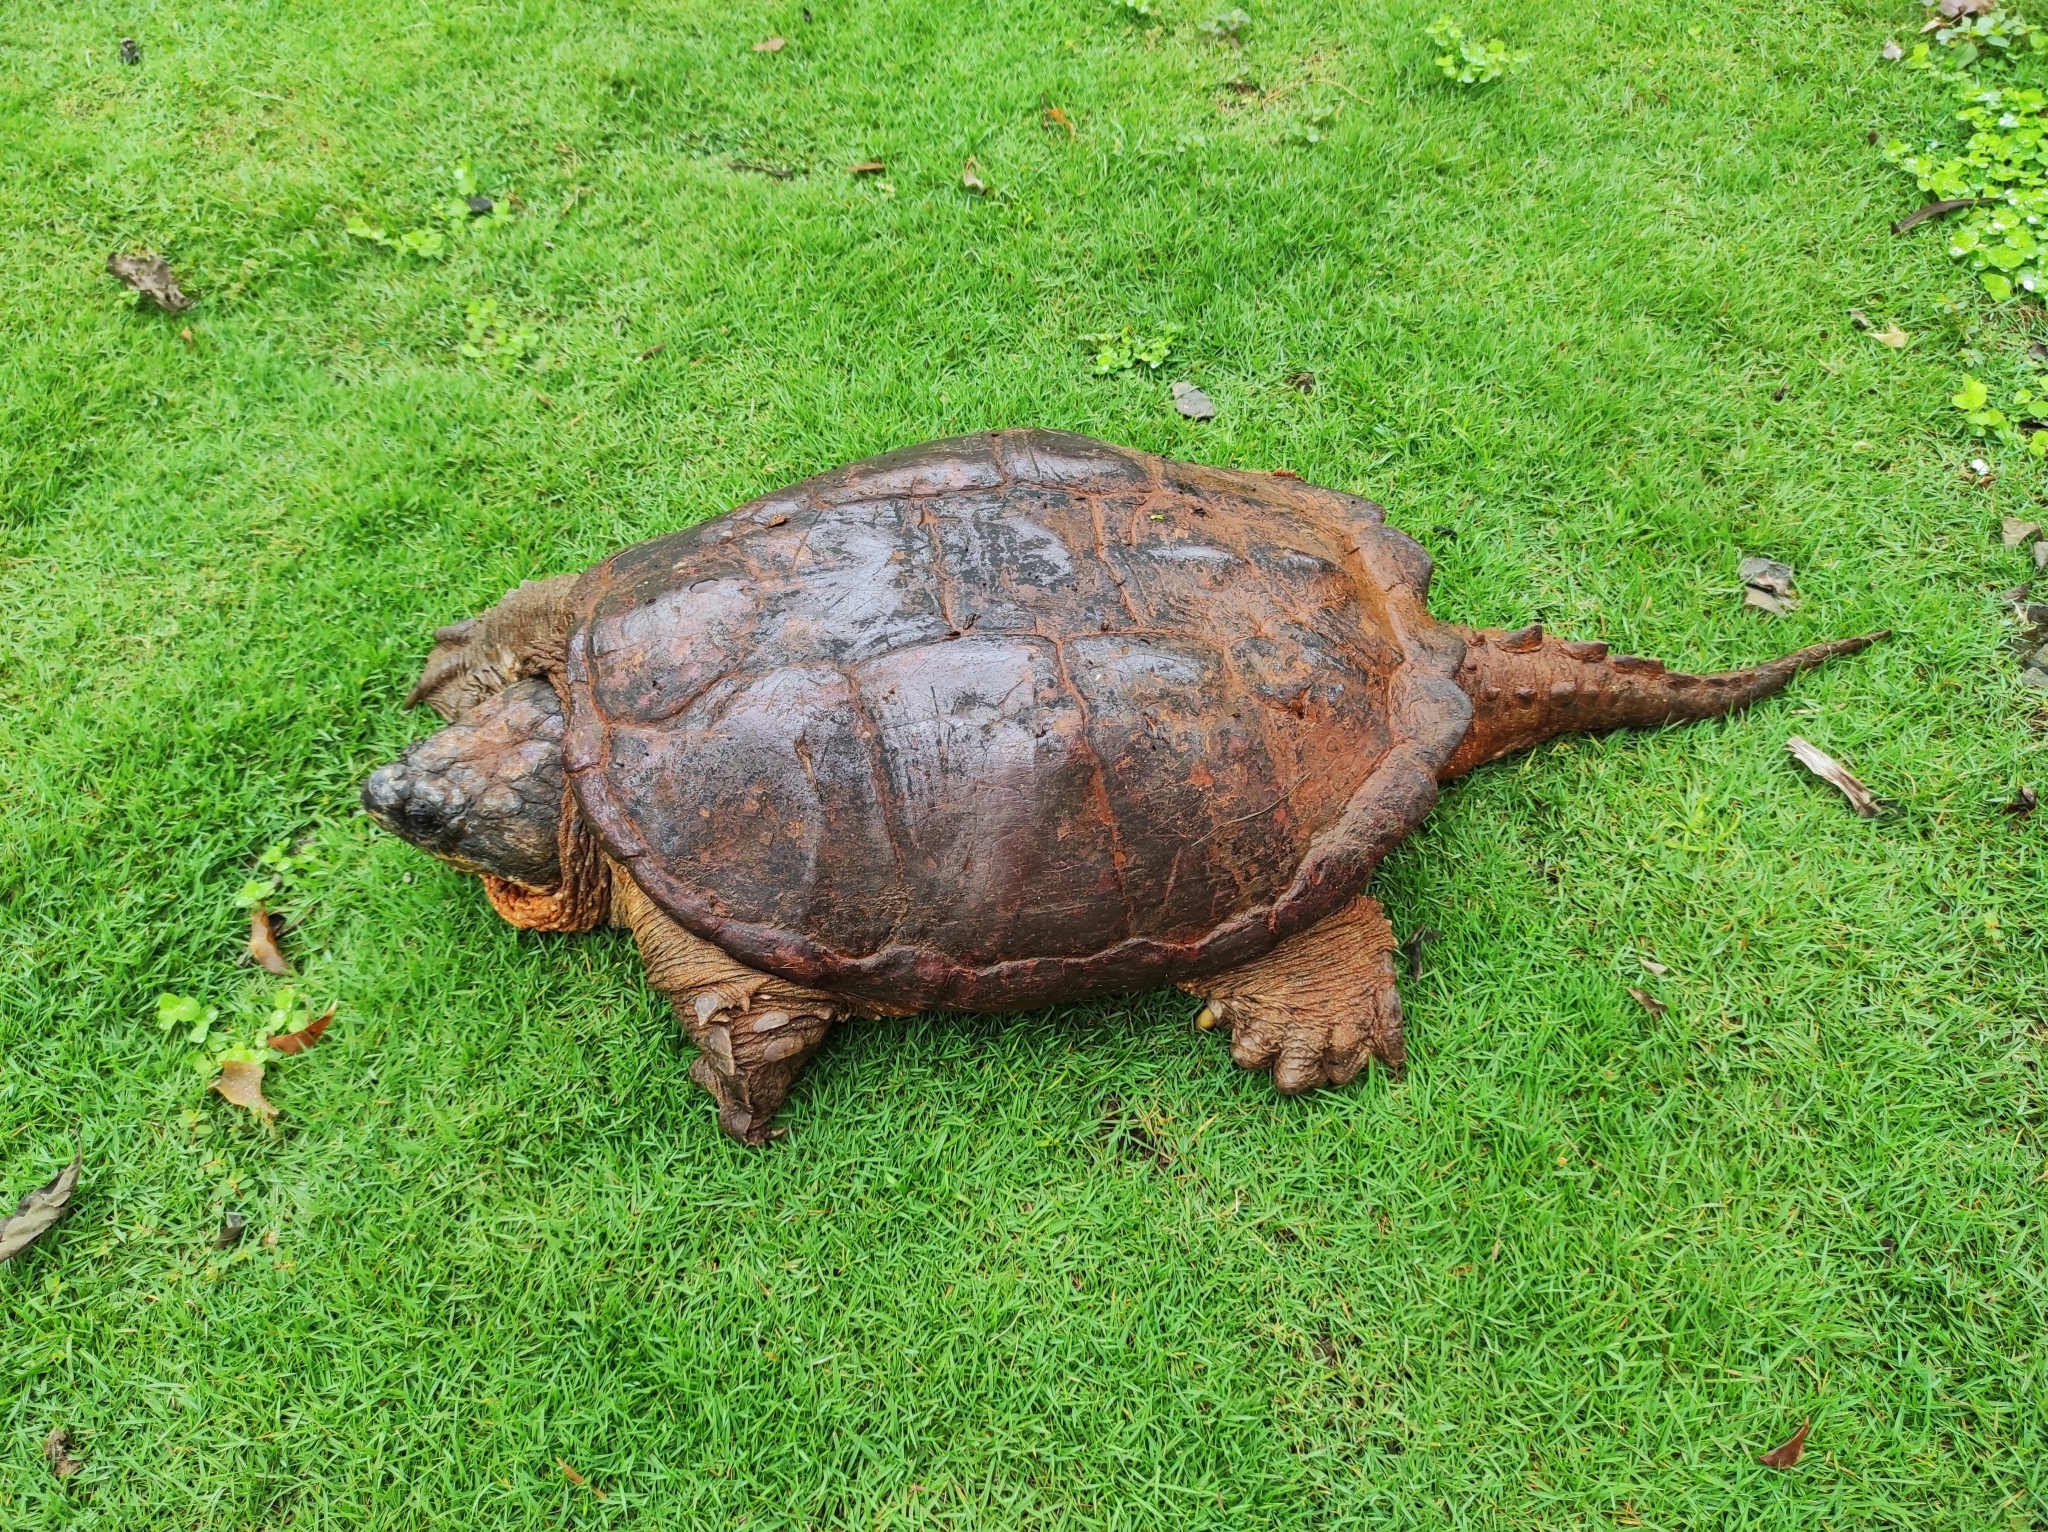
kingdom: Animalia
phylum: Chordata
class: Testudines
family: Chelydridae
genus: Chelydra
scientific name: Chelydra acutirostris
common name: South american snapping turtle
